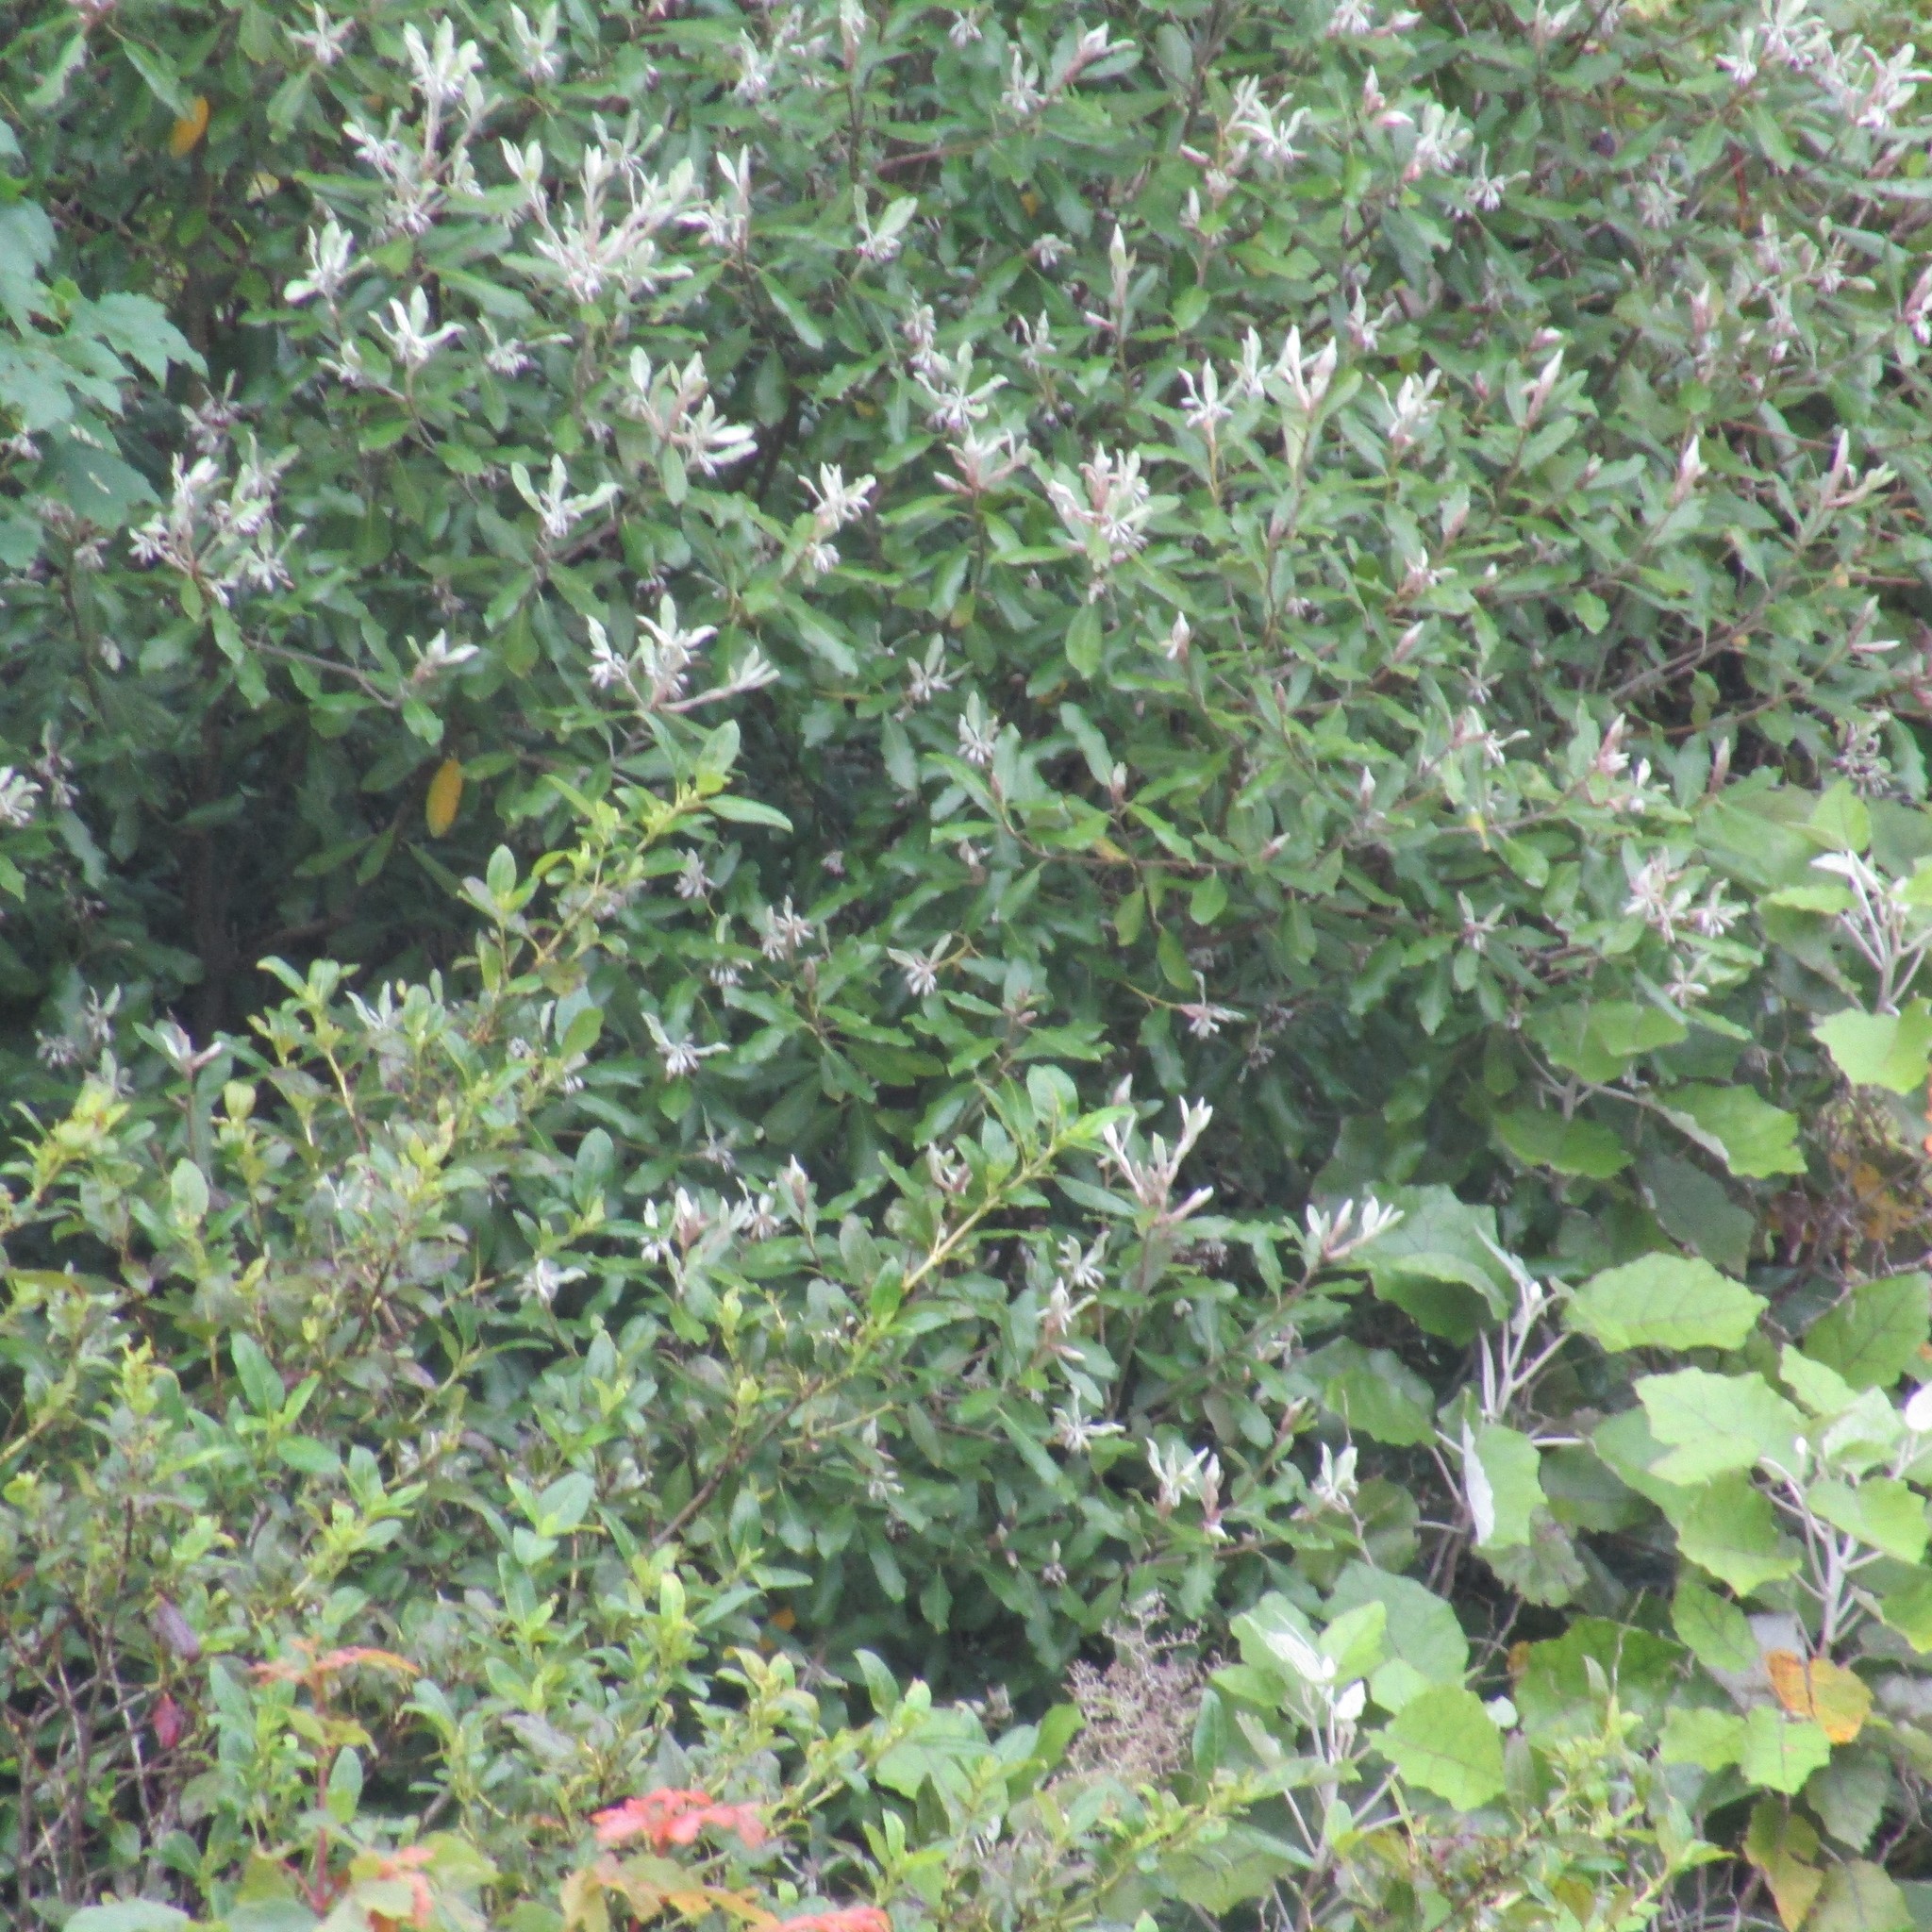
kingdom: Plantae
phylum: Tracheophyta
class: Magnoliopsida
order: Apiales
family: Pittosporaceae
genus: Pittosporum
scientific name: Pittosporum ralphii
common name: Ralph's desertwillow
